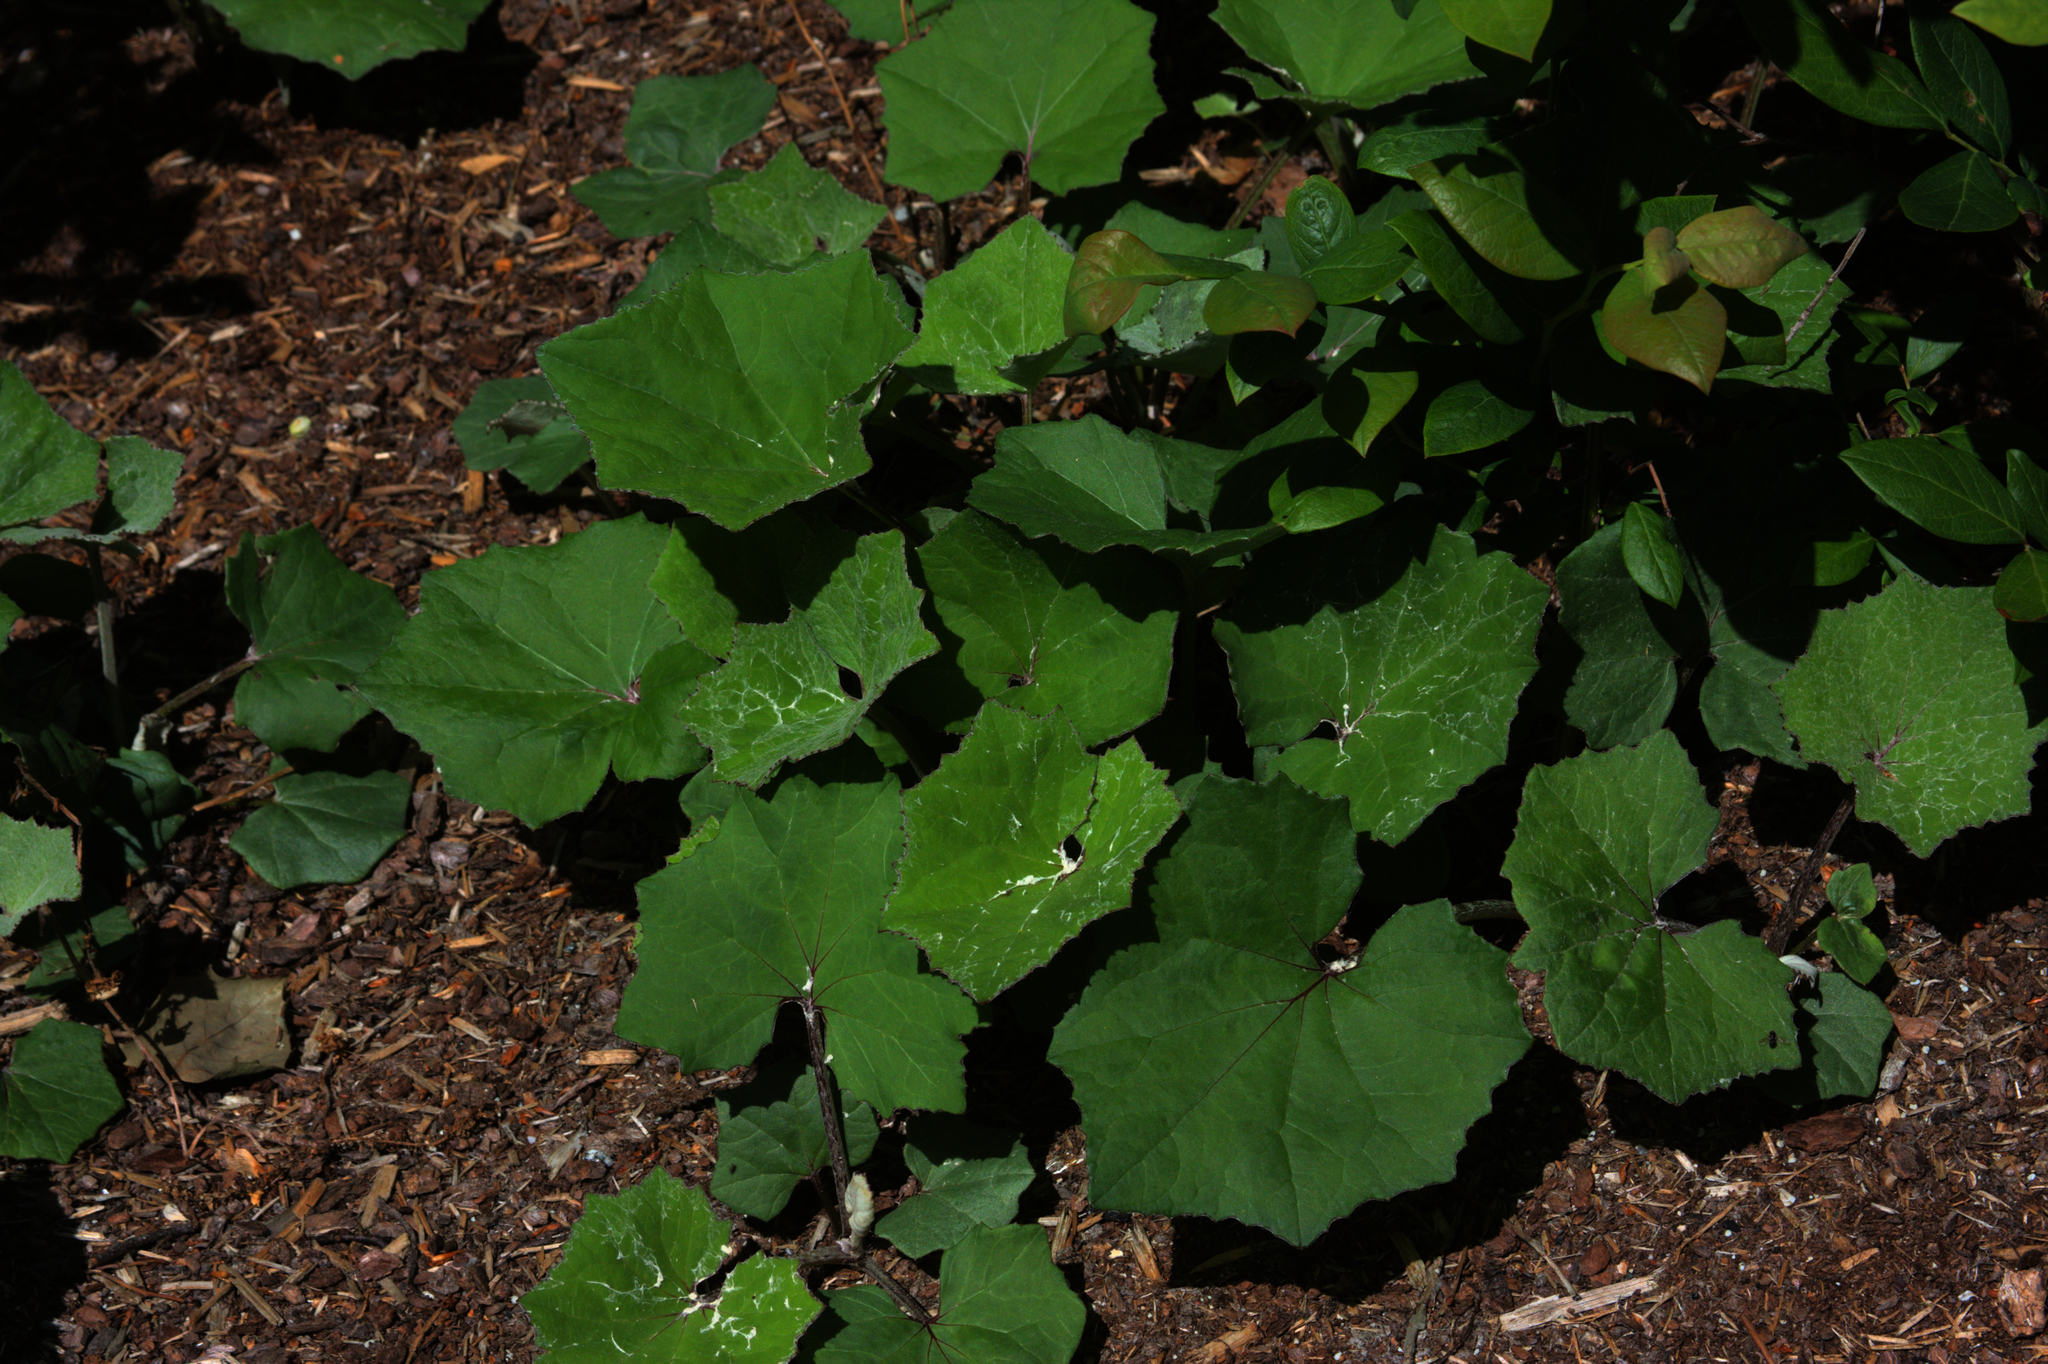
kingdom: Plantae
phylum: Tracheophyta
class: Magnoliopsida
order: Asterales
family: Asteraceae
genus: Tussilago
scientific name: Tussilago farfara
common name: Coltsfoot
